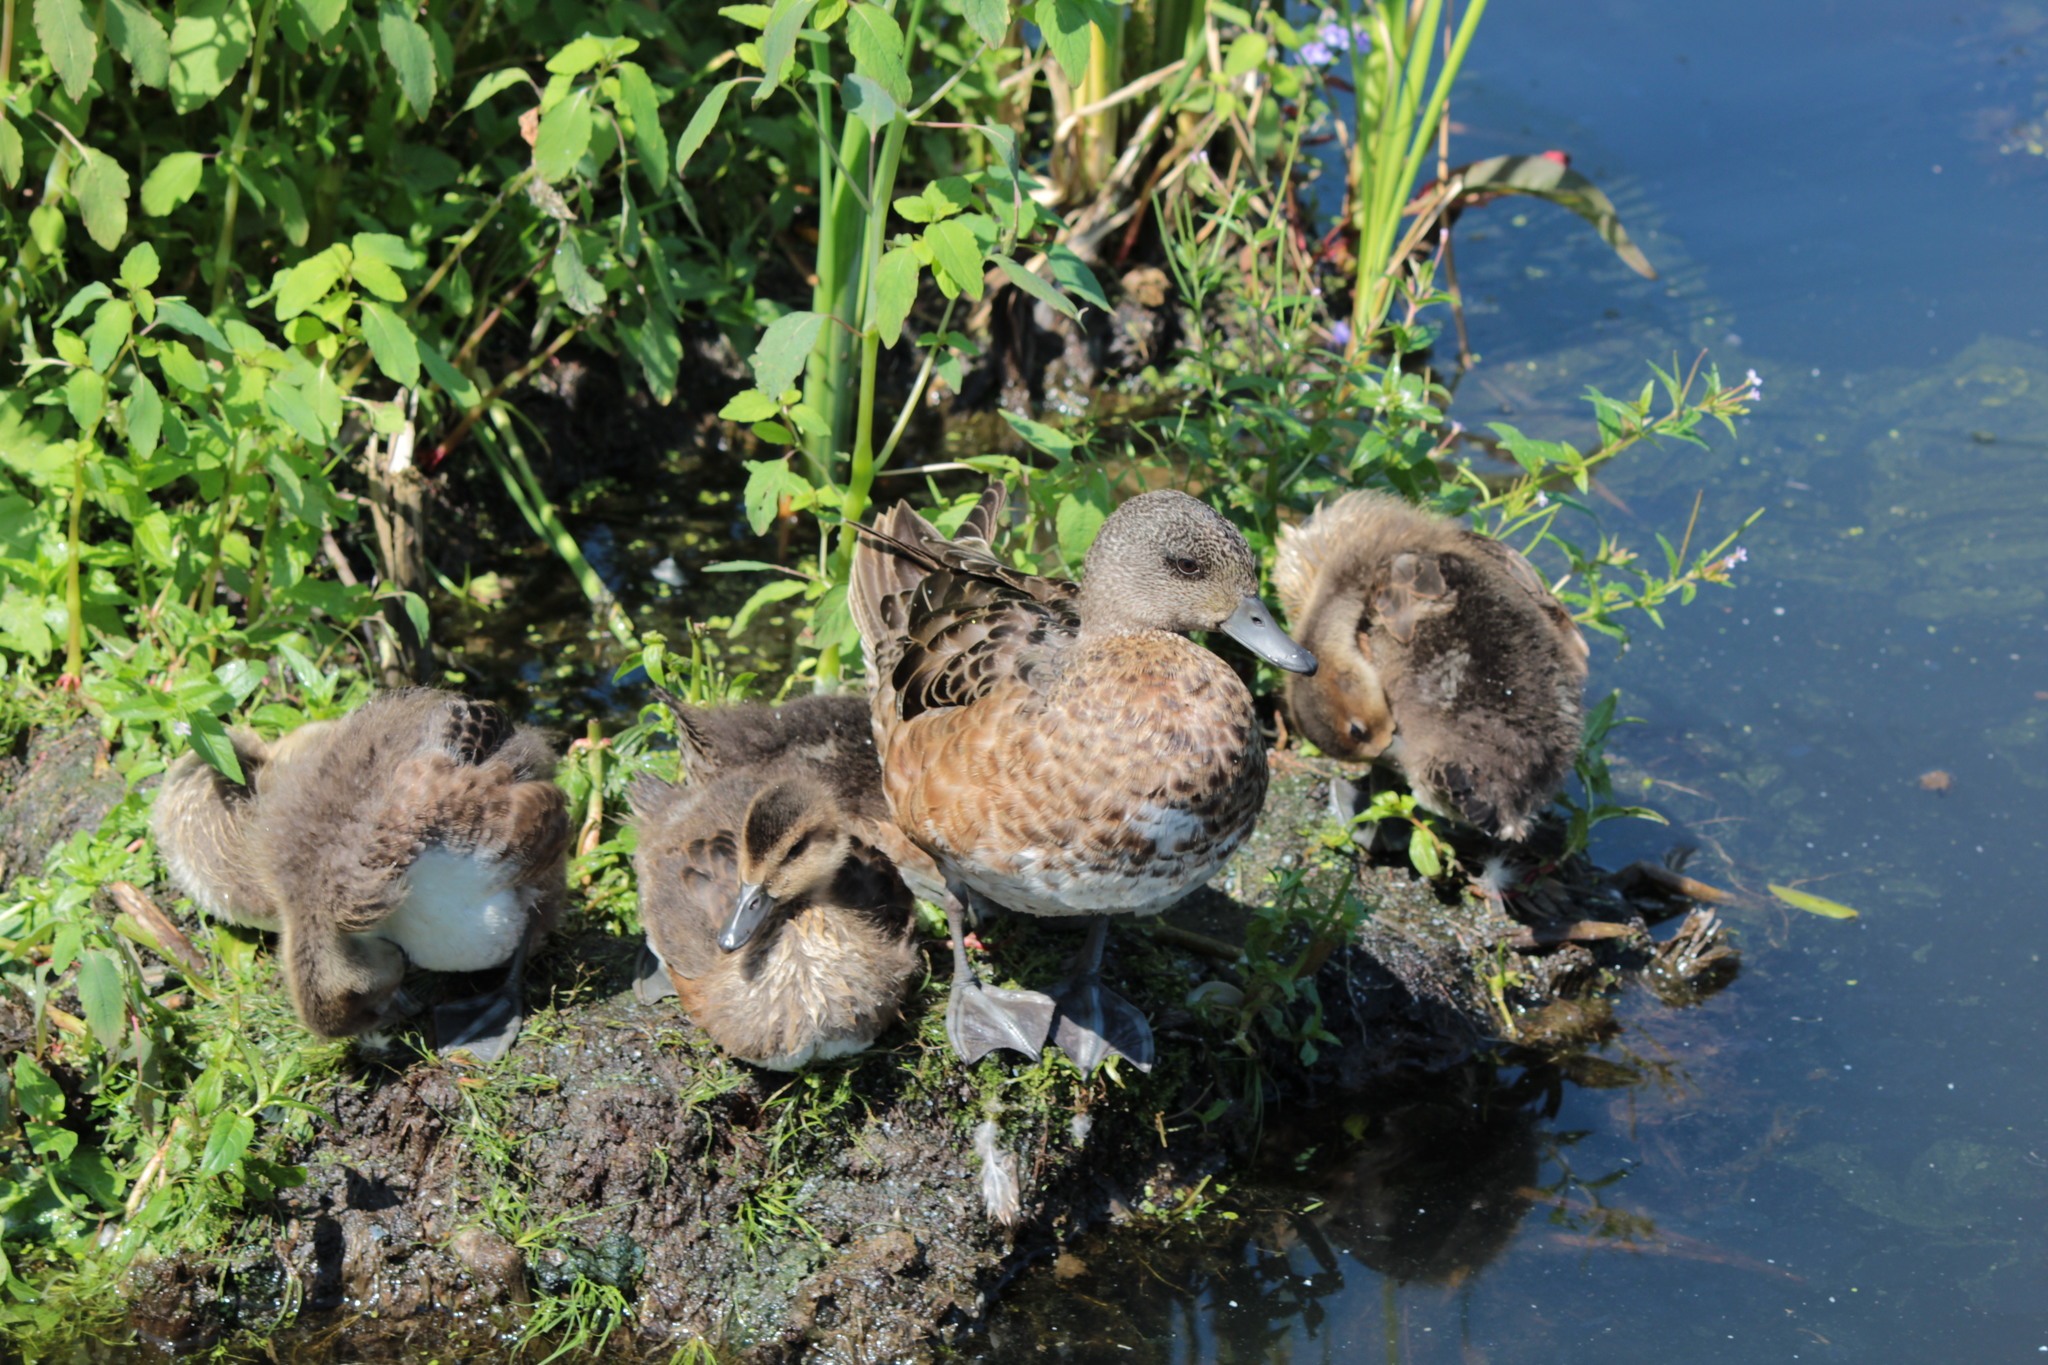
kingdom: Animalia
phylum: Chordata
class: Aves
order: Anseriformes
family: Anatidae
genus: Mareca
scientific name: Mareca americana
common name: American wigeon
